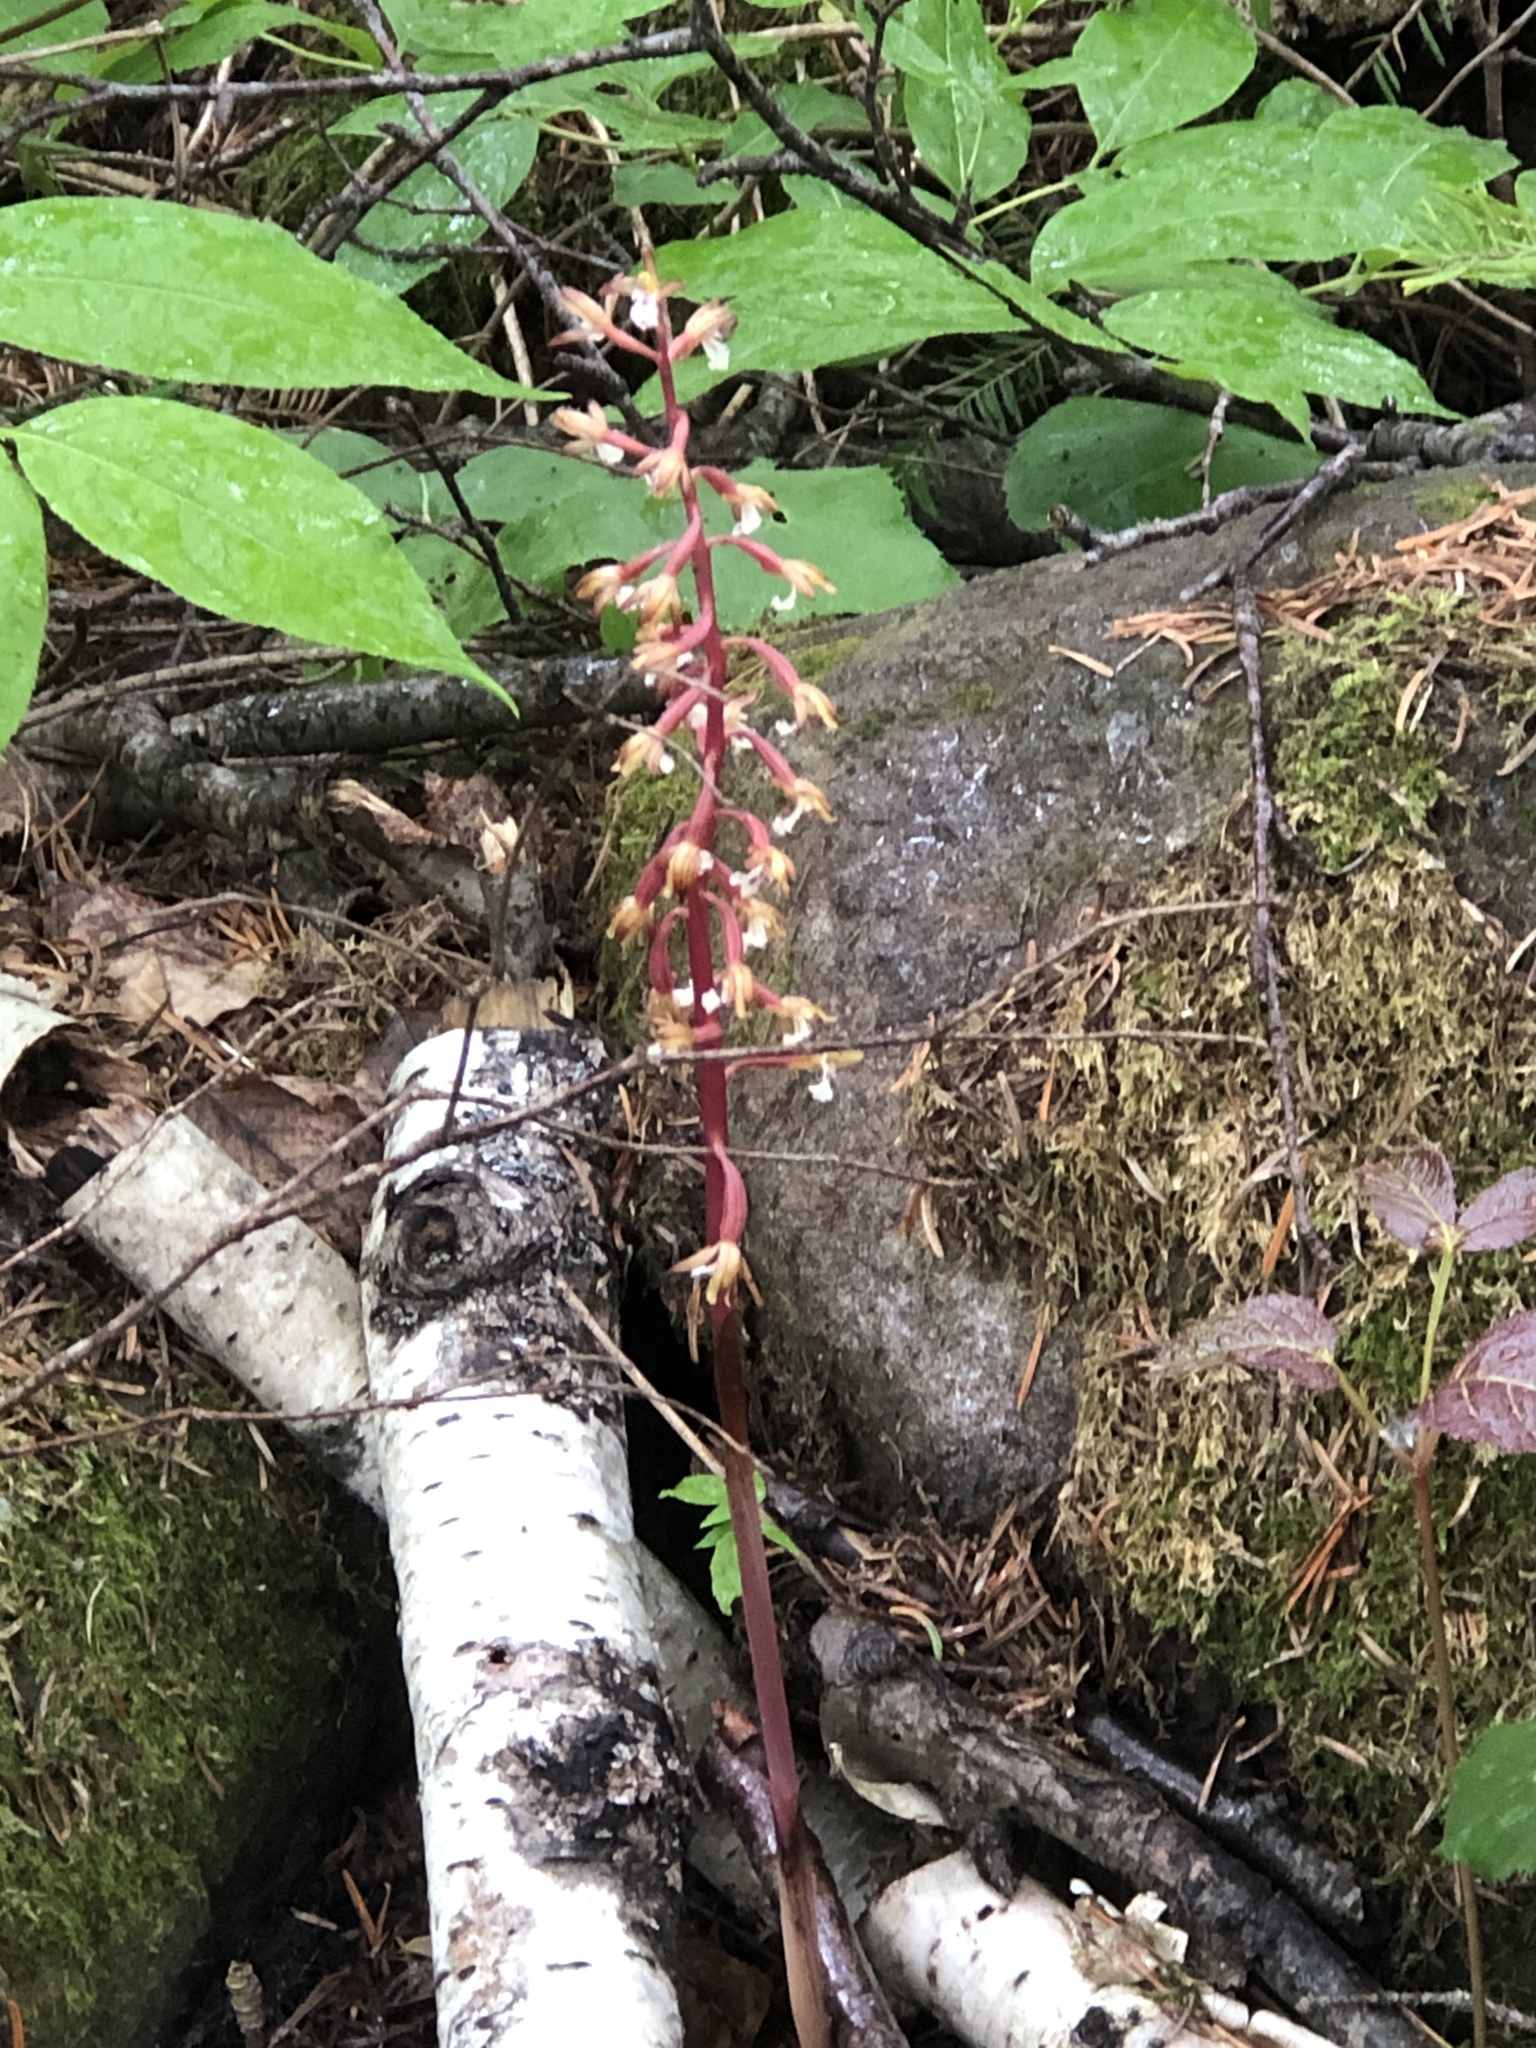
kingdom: Plantae
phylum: Tracheophyta
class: Liliopsida
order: Asparagales
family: Orchidaceae
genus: Corallorhiza
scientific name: Corallorhiza maculata
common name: Spotted coralroot
